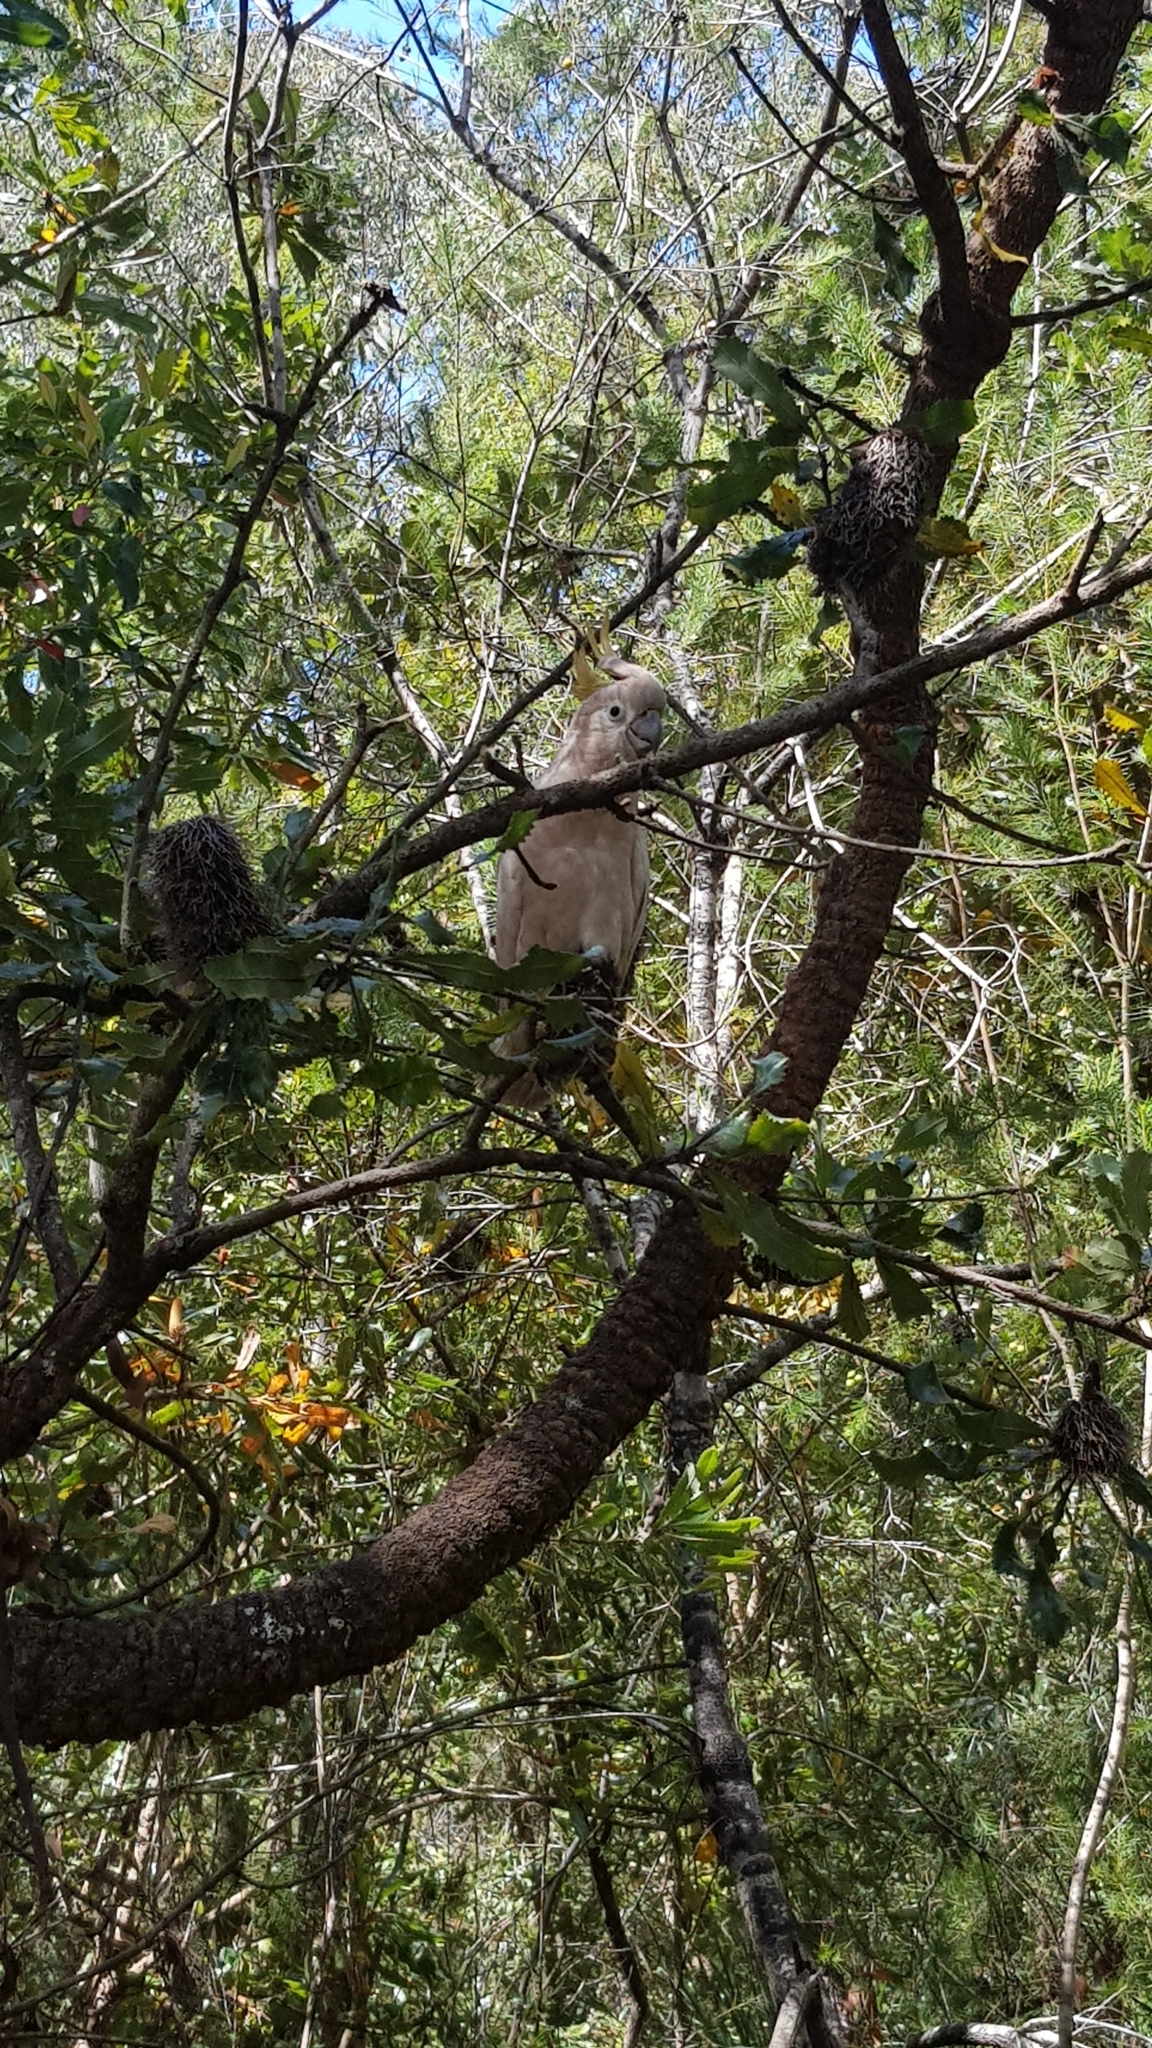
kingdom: Animalia
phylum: Chordata
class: Aves
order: Psittaciformes
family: Psittacidae
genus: Cacatua
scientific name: Cacatua galerita
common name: Sulphur-crested cockatoo
